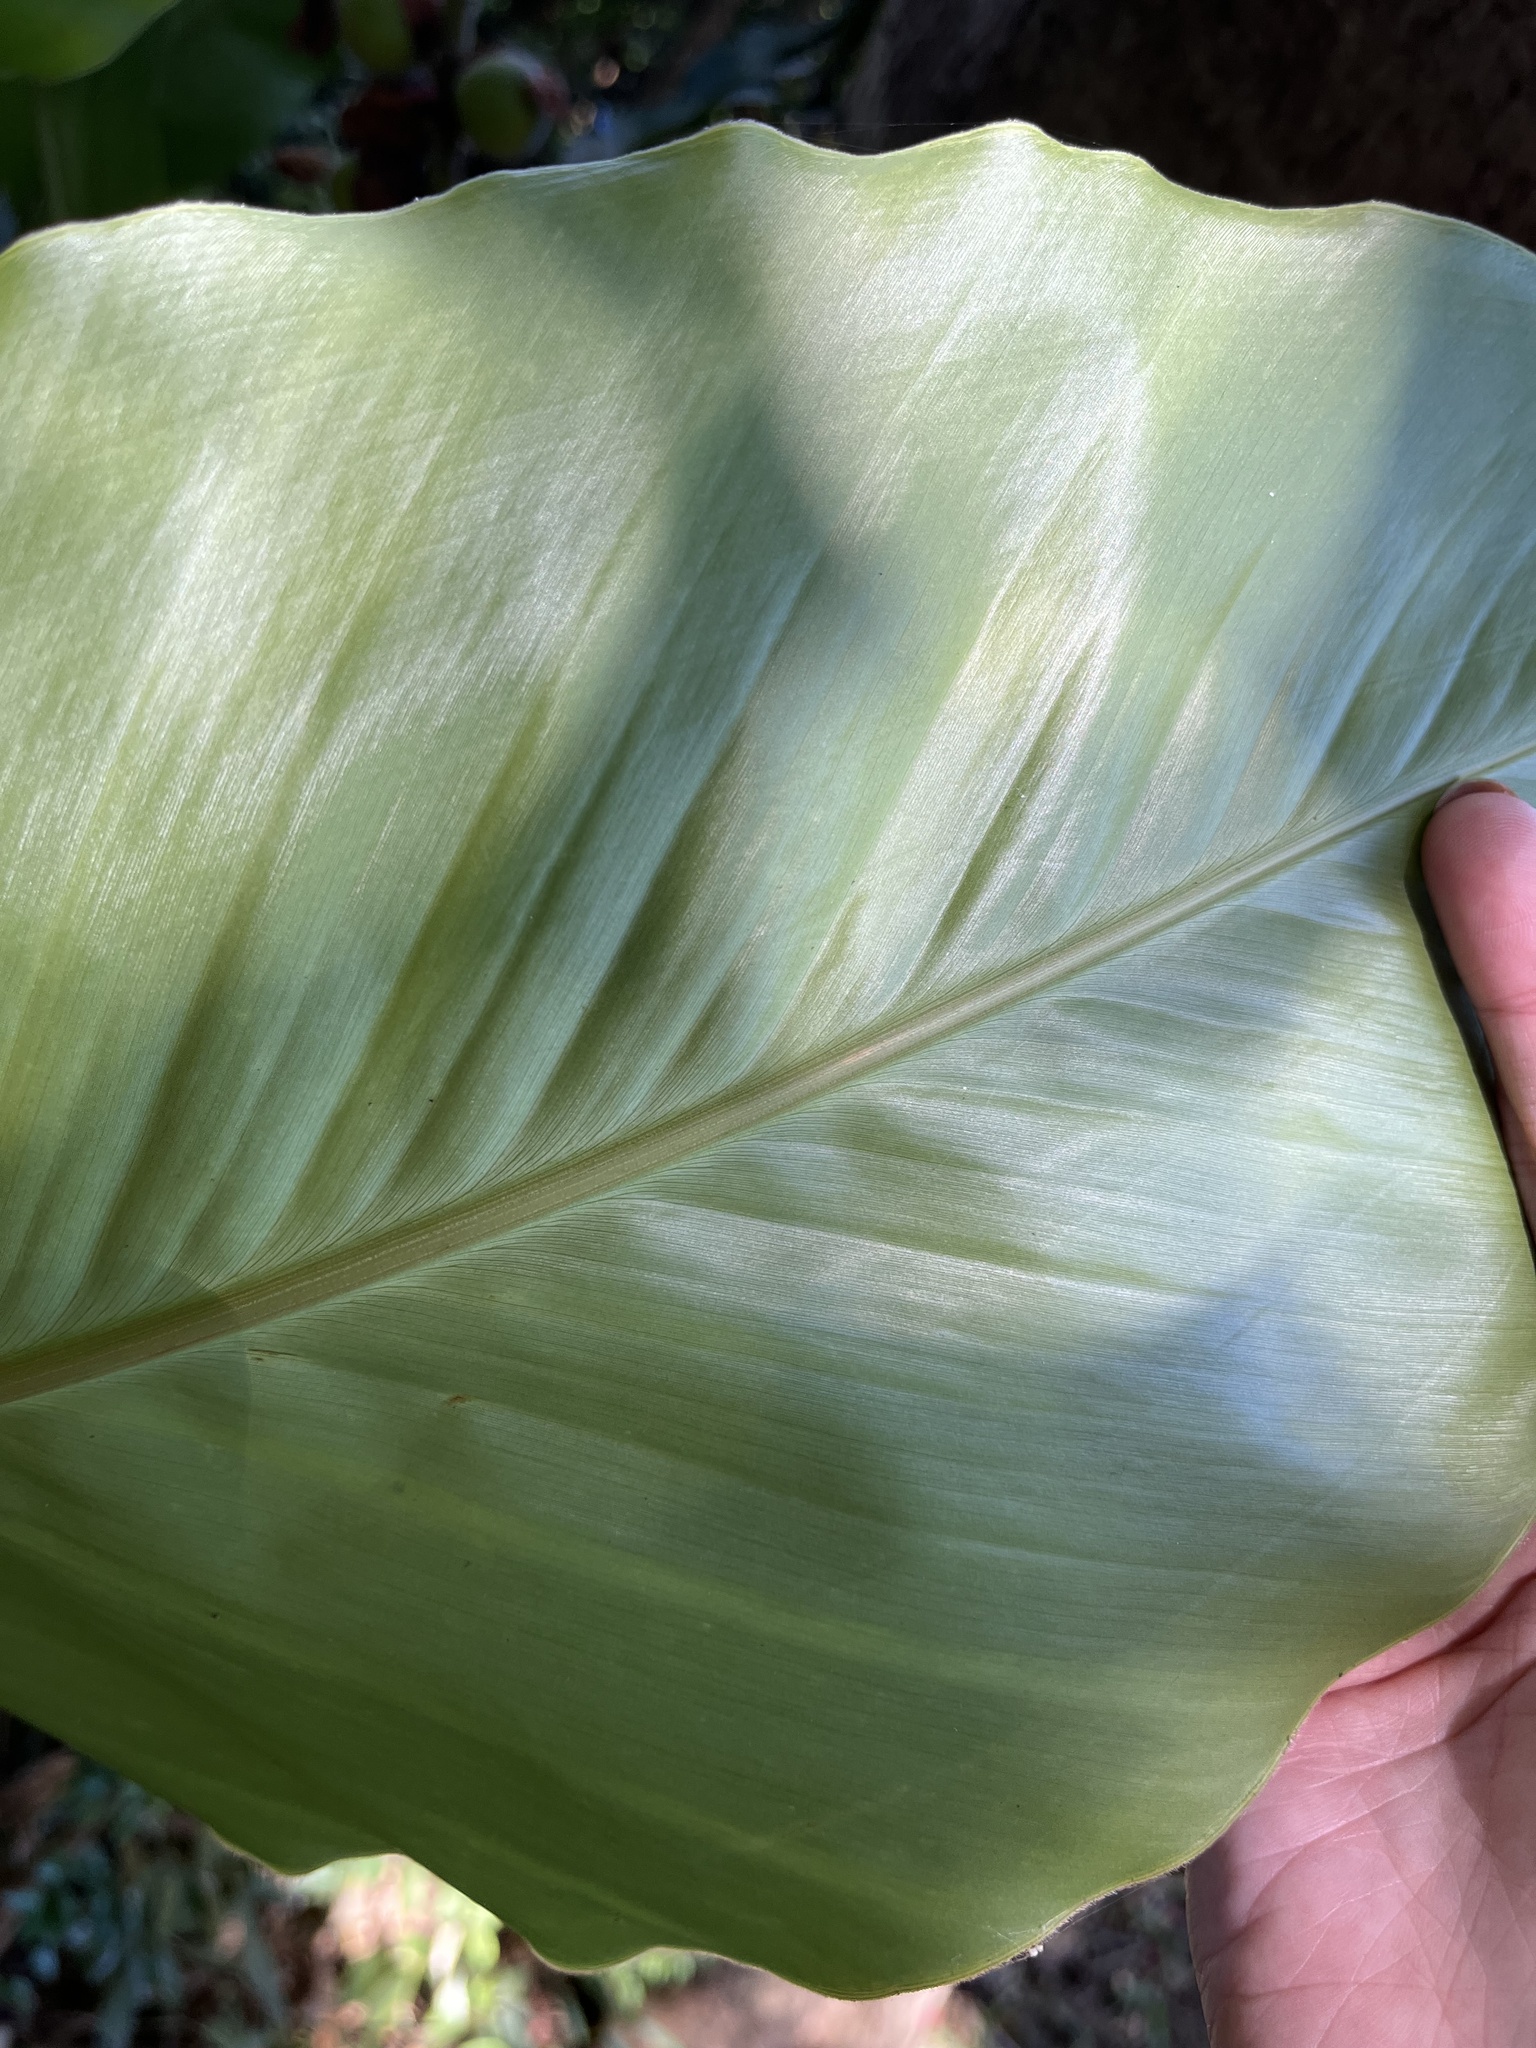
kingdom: Plantae
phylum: Tracheophyta
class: Liliopsida
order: Zingiberales
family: Zingiberaceae
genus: Alpinia
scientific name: Alpinia uraiensis
